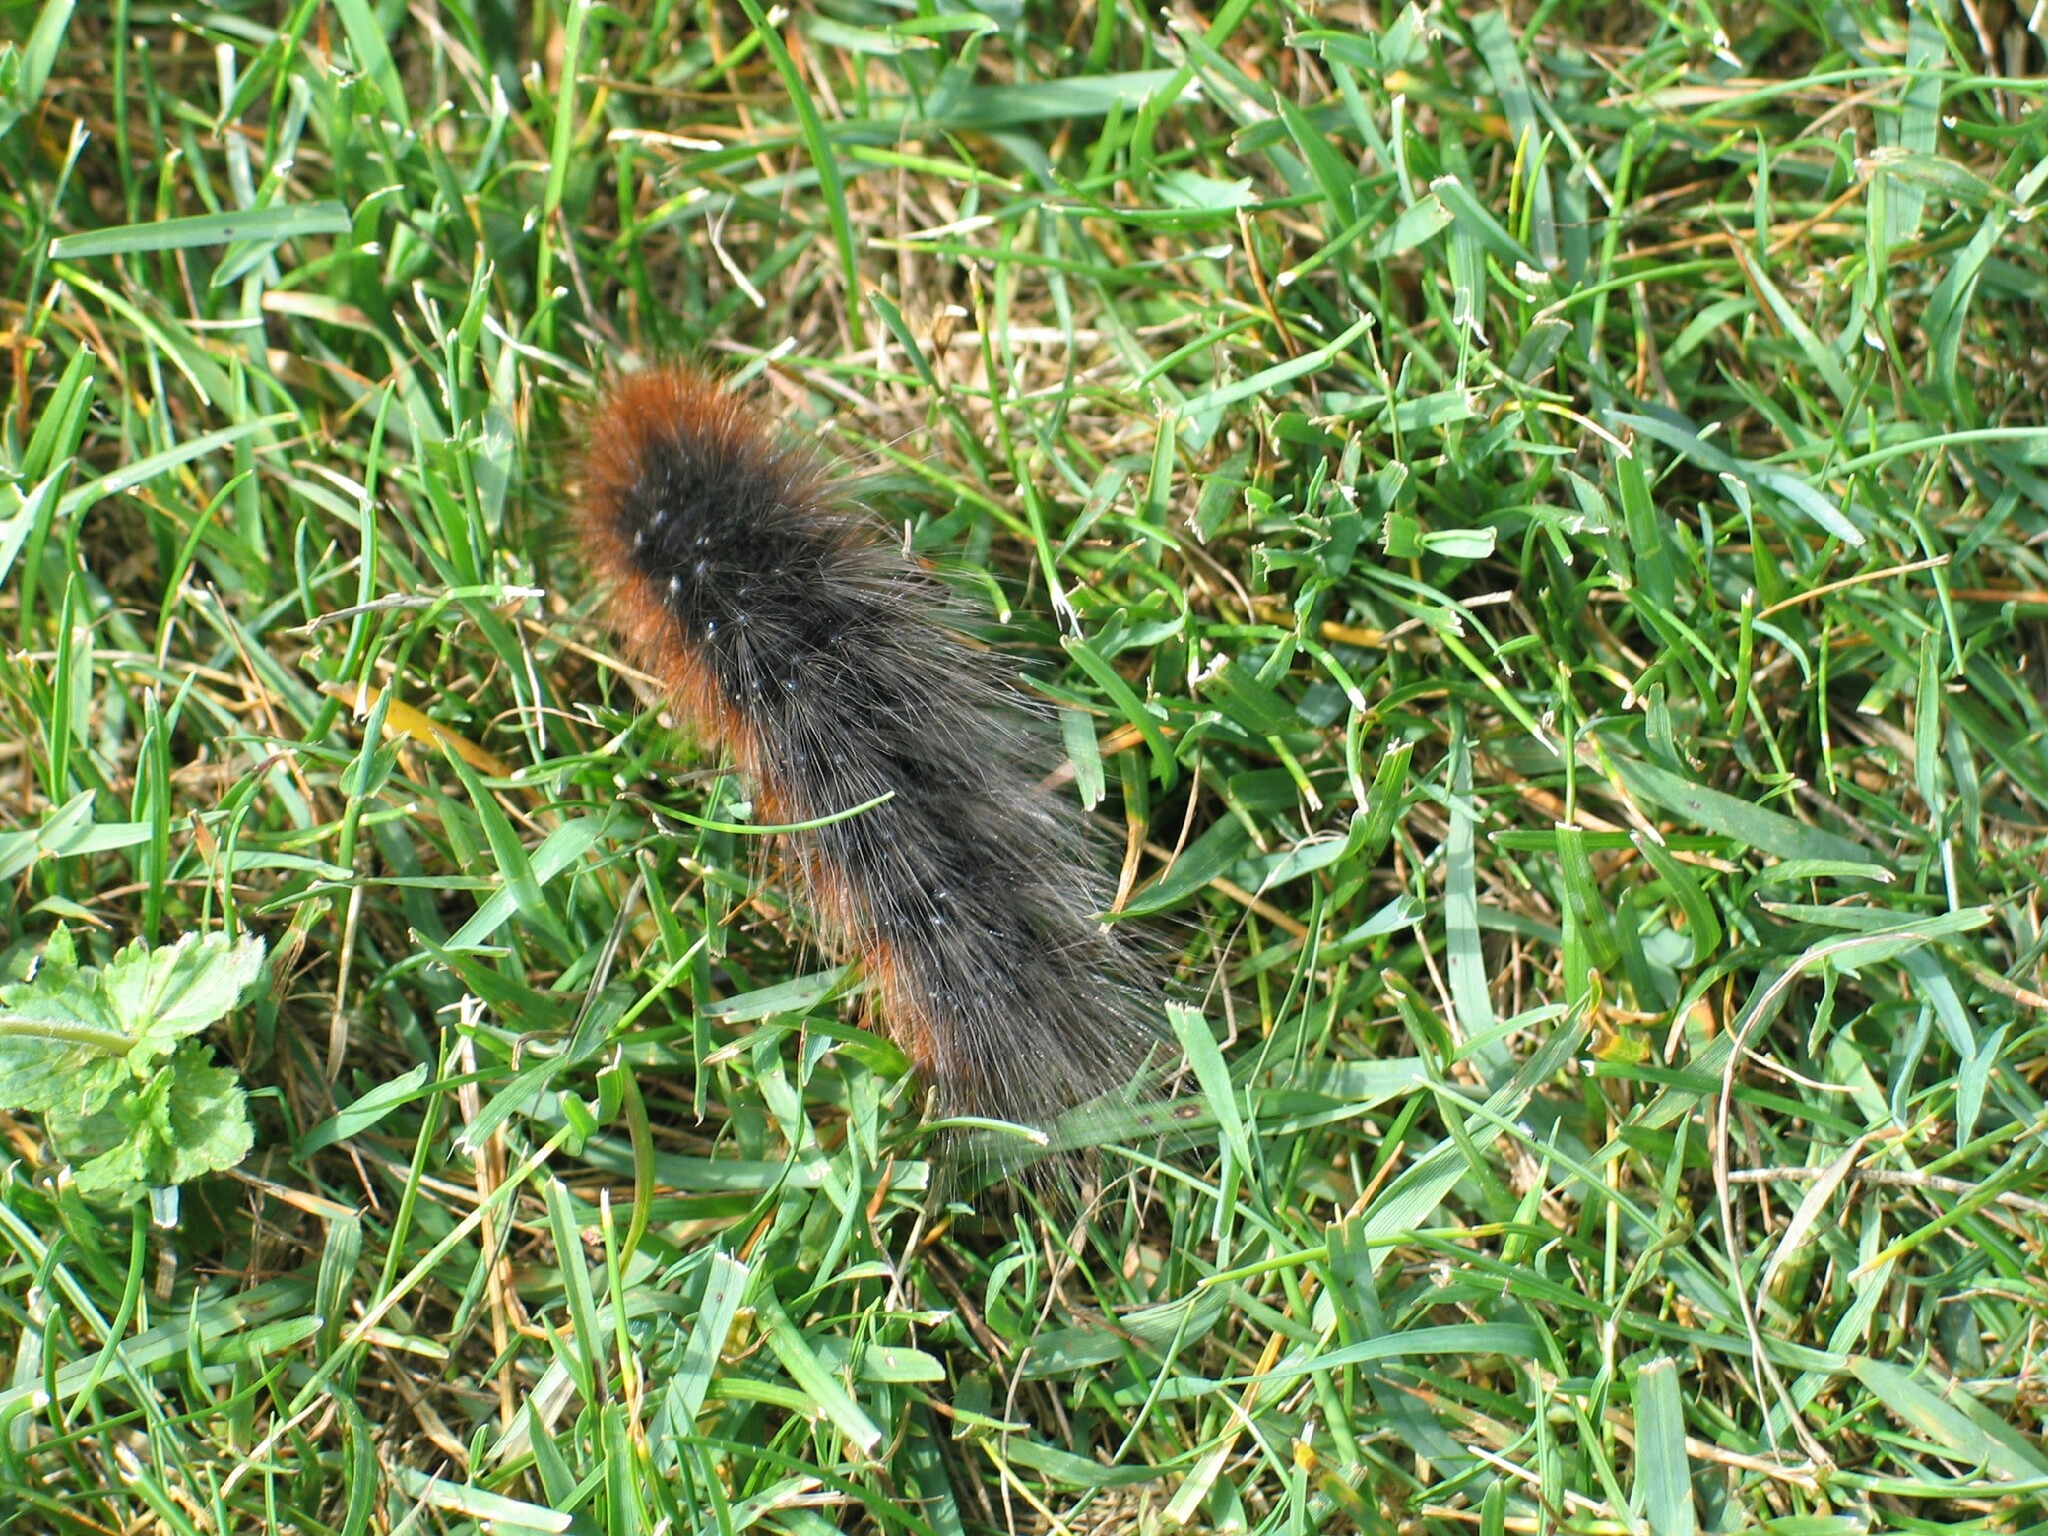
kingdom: Animalia
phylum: Arthropoda
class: Insecta
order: Lepidoptera
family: Erebidae
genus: Arctia
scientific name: Arctia caja
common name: Garden tiger
